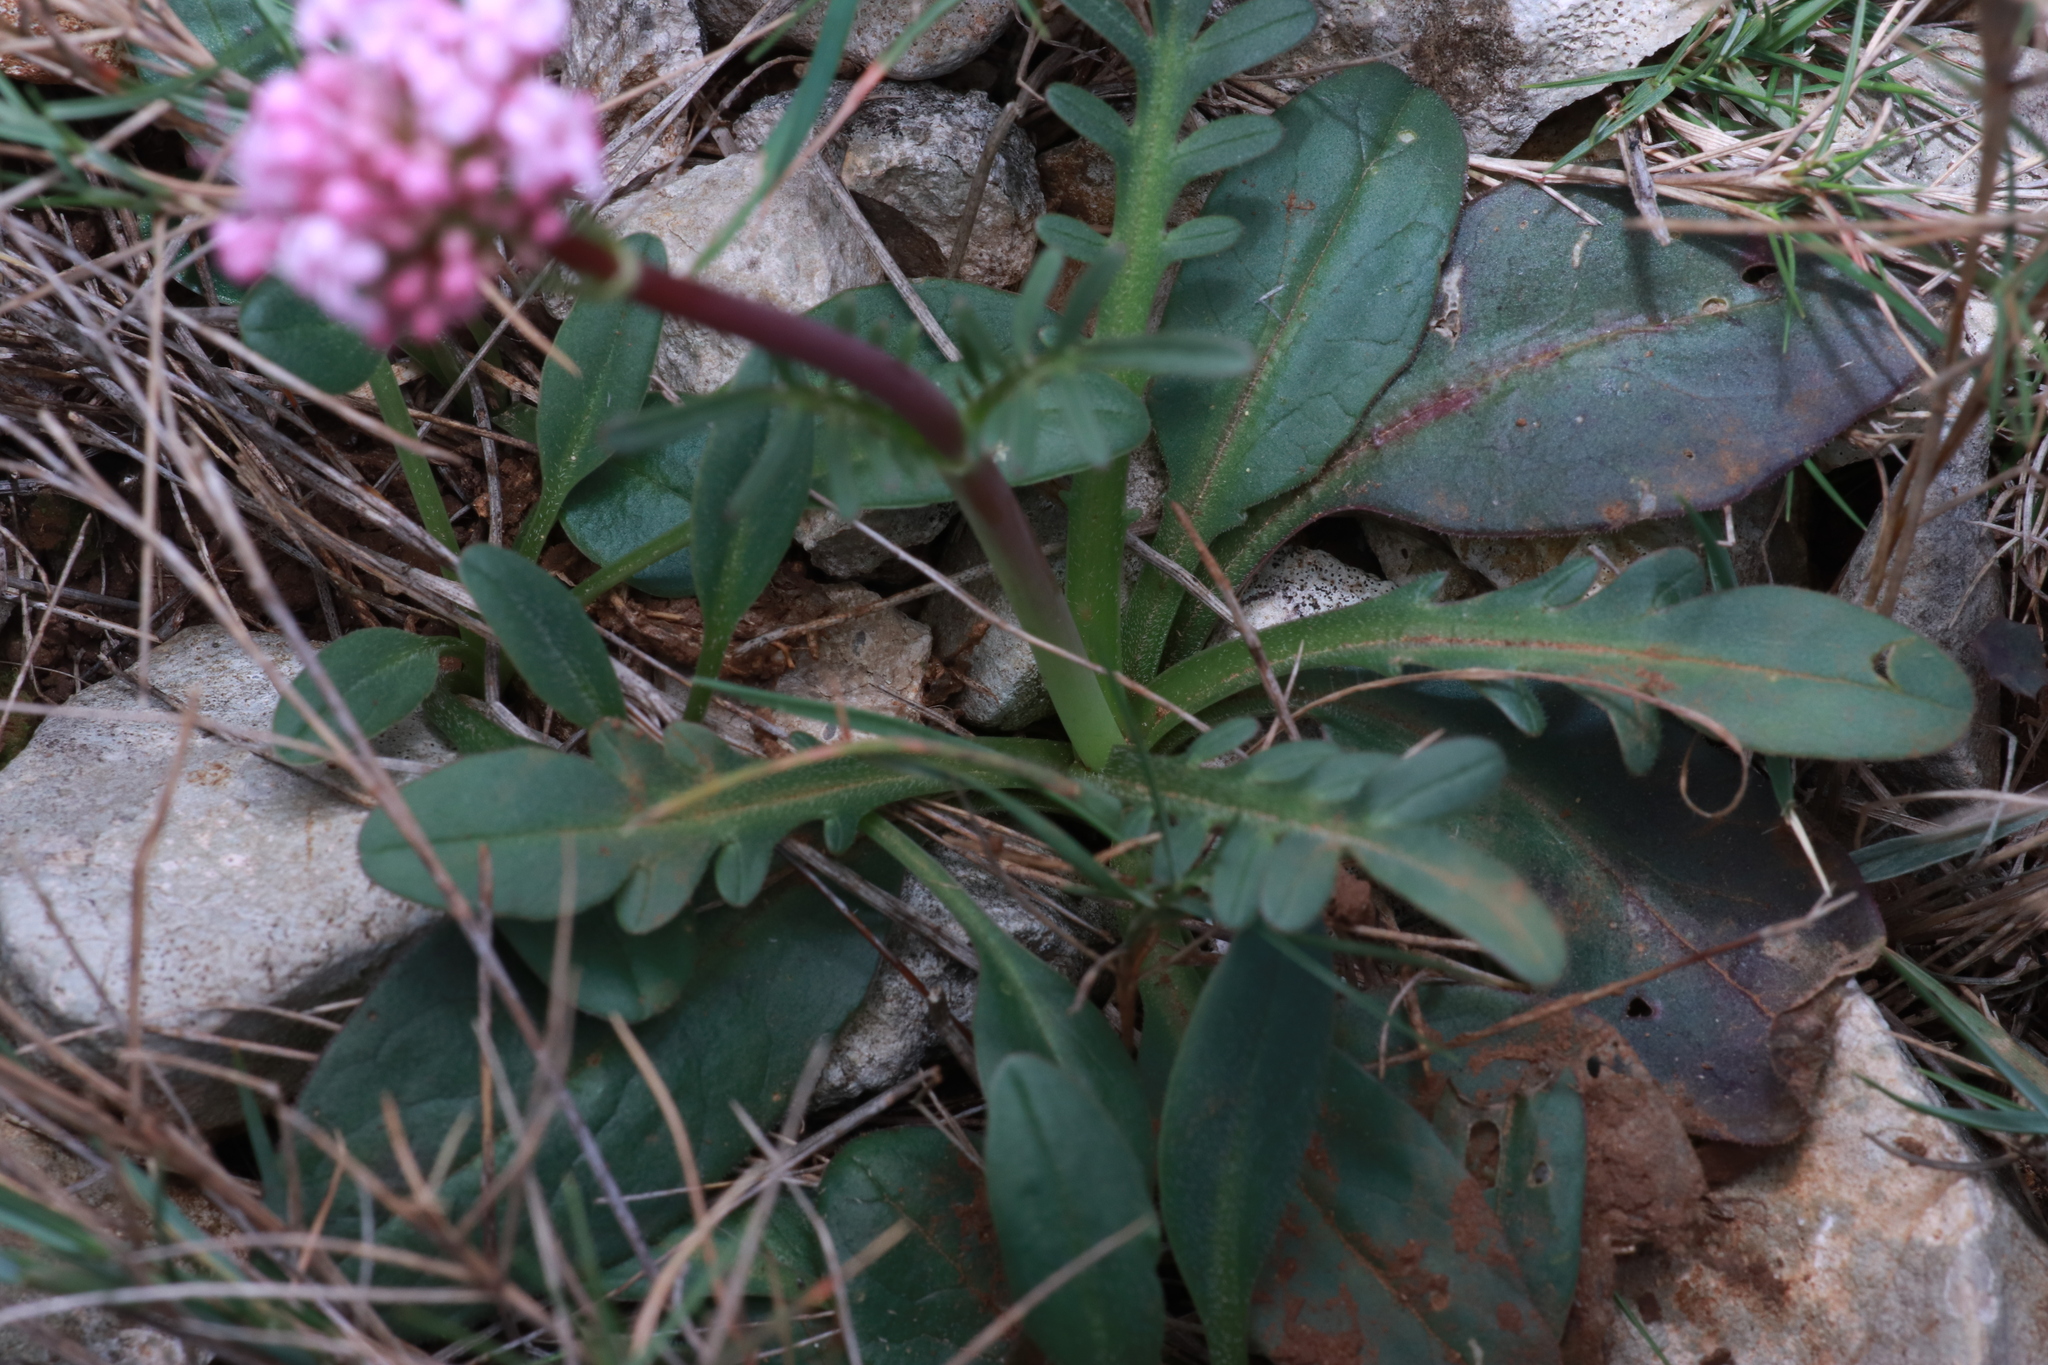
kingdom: Plantae
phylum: Tracheophyta
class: Magnoliopsida
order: Dipsacales
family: Caprifoliaceae
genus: Valeriana
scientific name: Valeriana tuberosa
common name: Tuberous valerian
